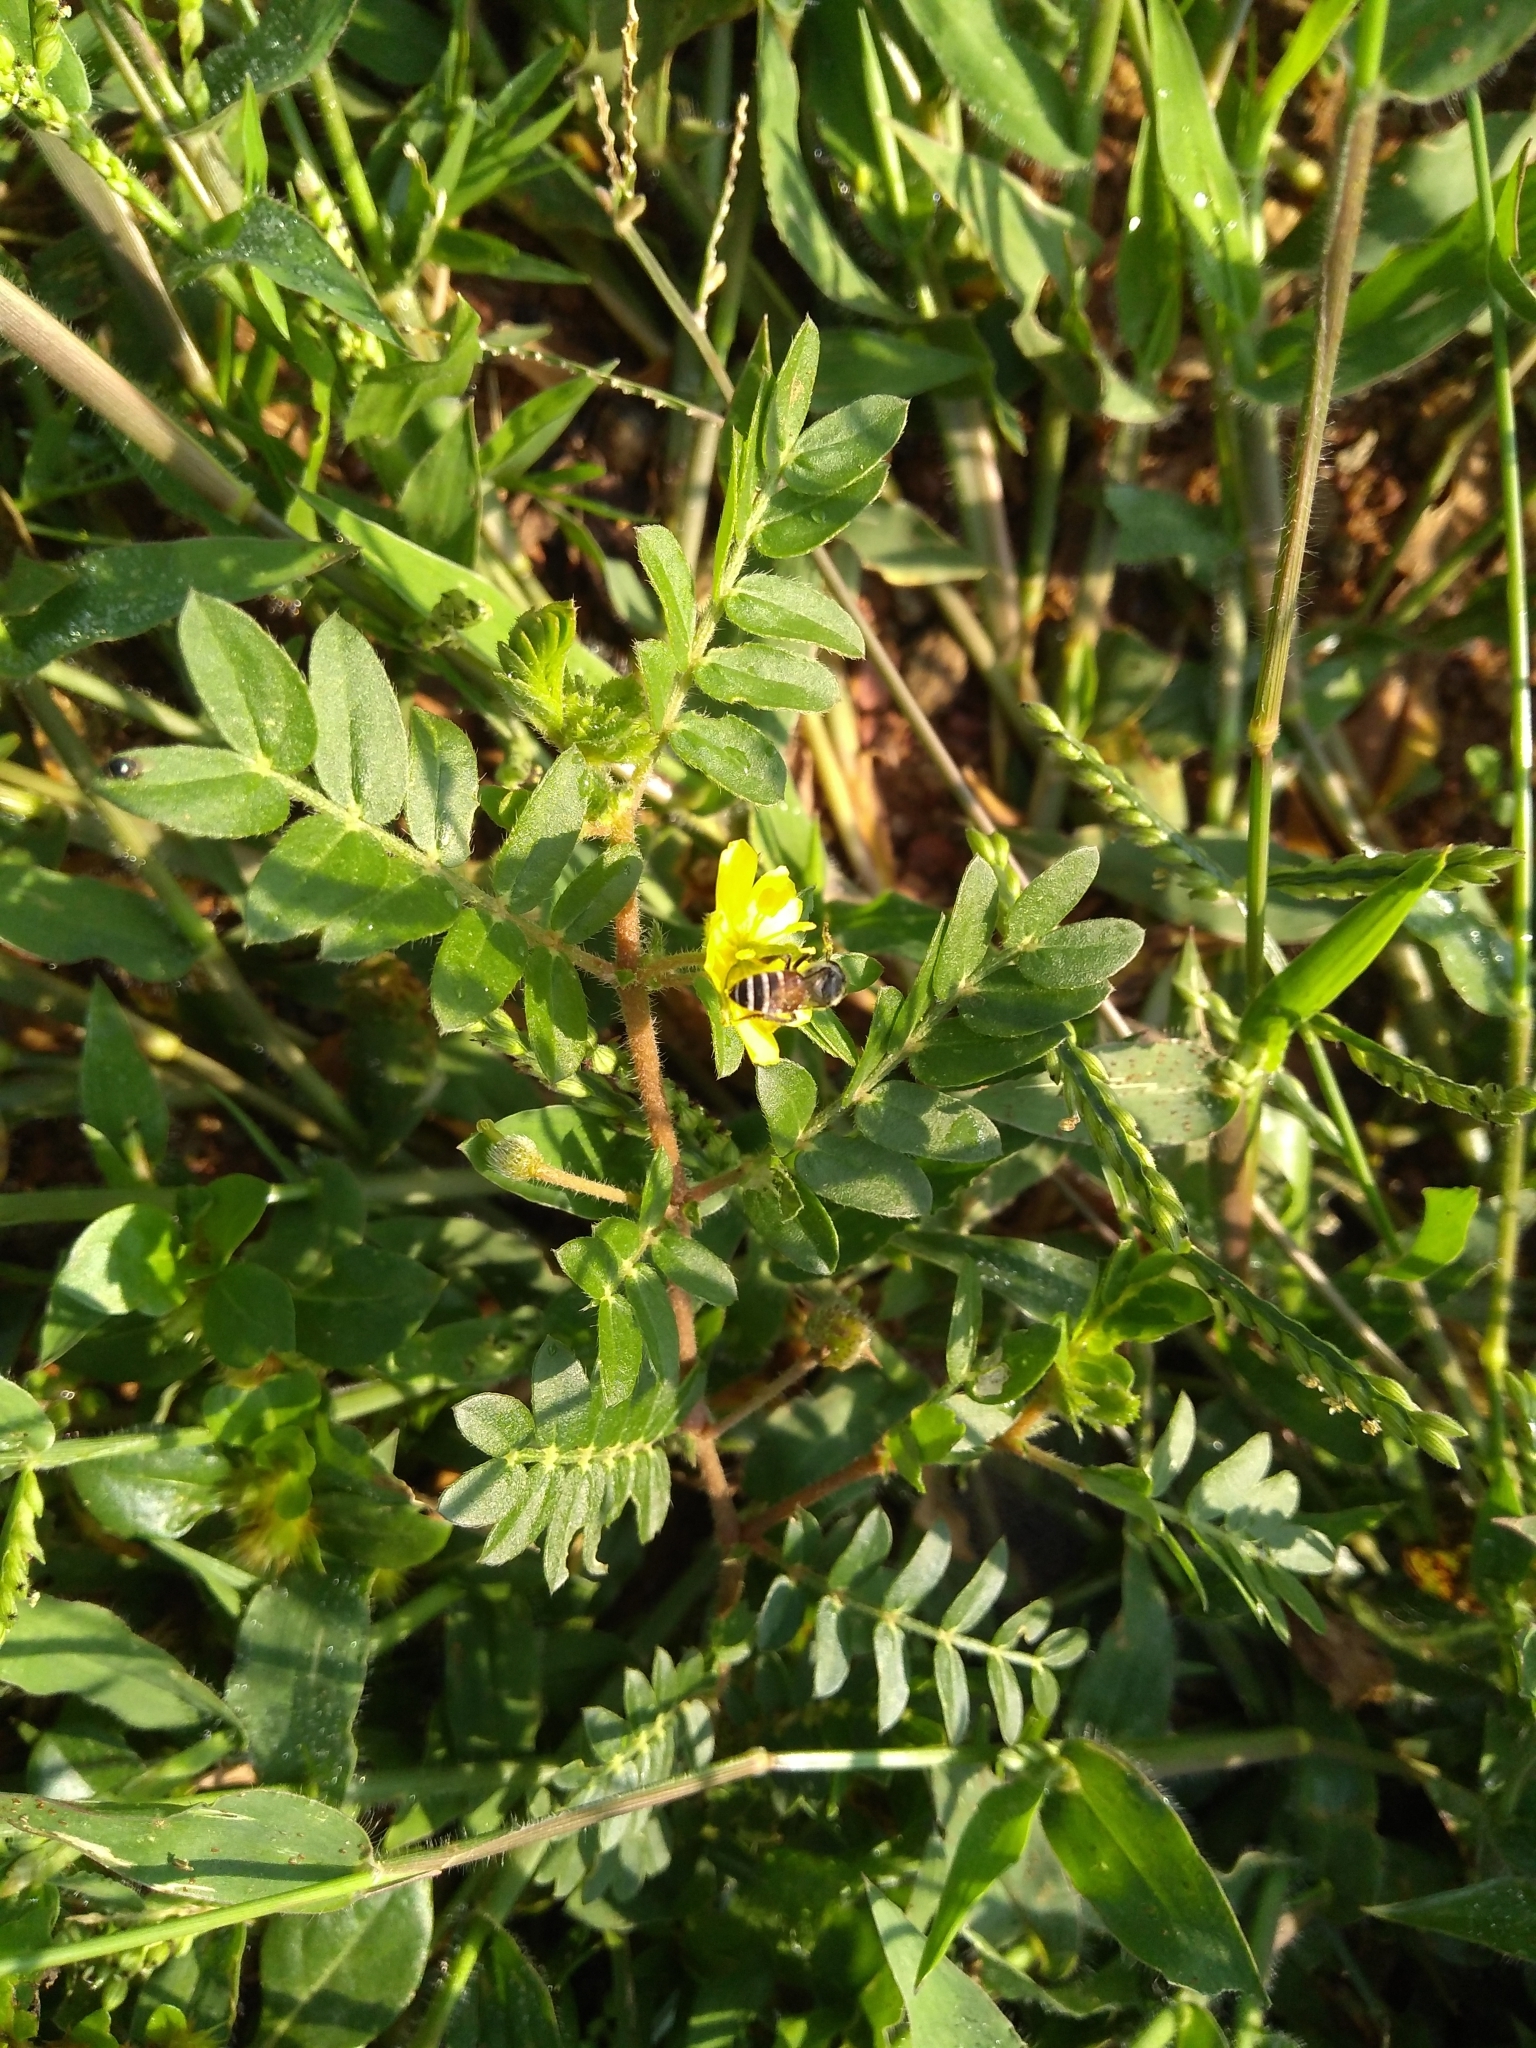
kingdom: Animalia
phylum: Arthropoda
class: Insecta
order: Hymenoptera
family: Apidae
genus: Apis
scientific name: Apis florea
